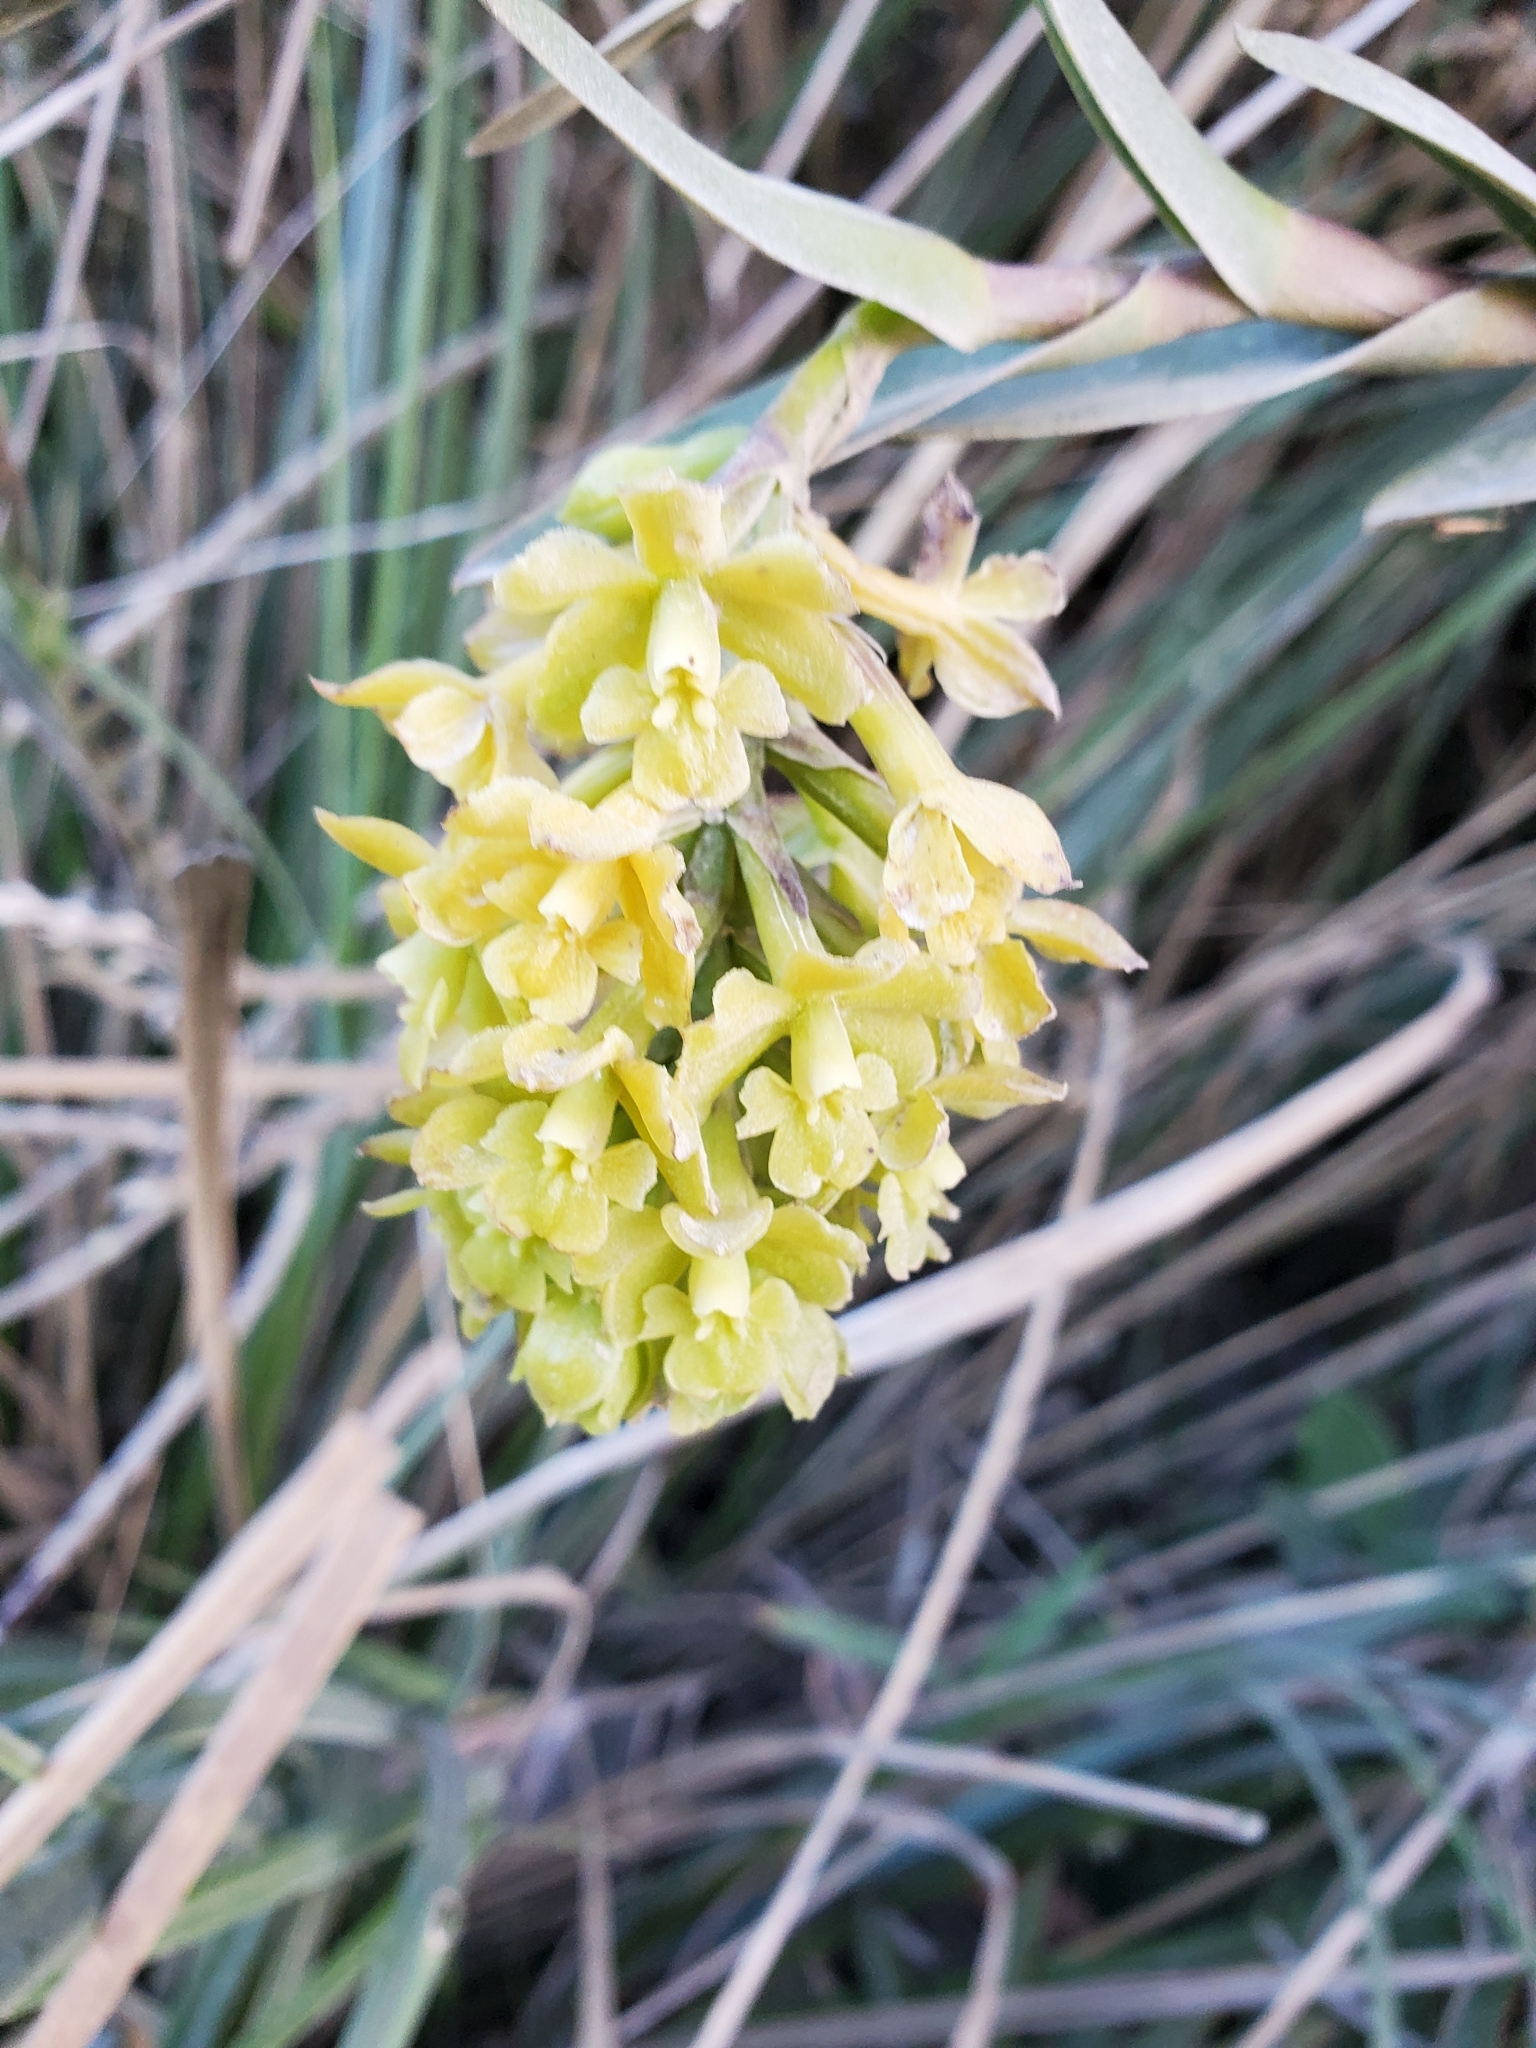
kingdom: Plantae
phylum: Tracheophyta
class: Liliopsida
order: Asparagales
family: Orchidaceae
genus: Epidendrum
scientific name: Epidendrum zipaquiranum
